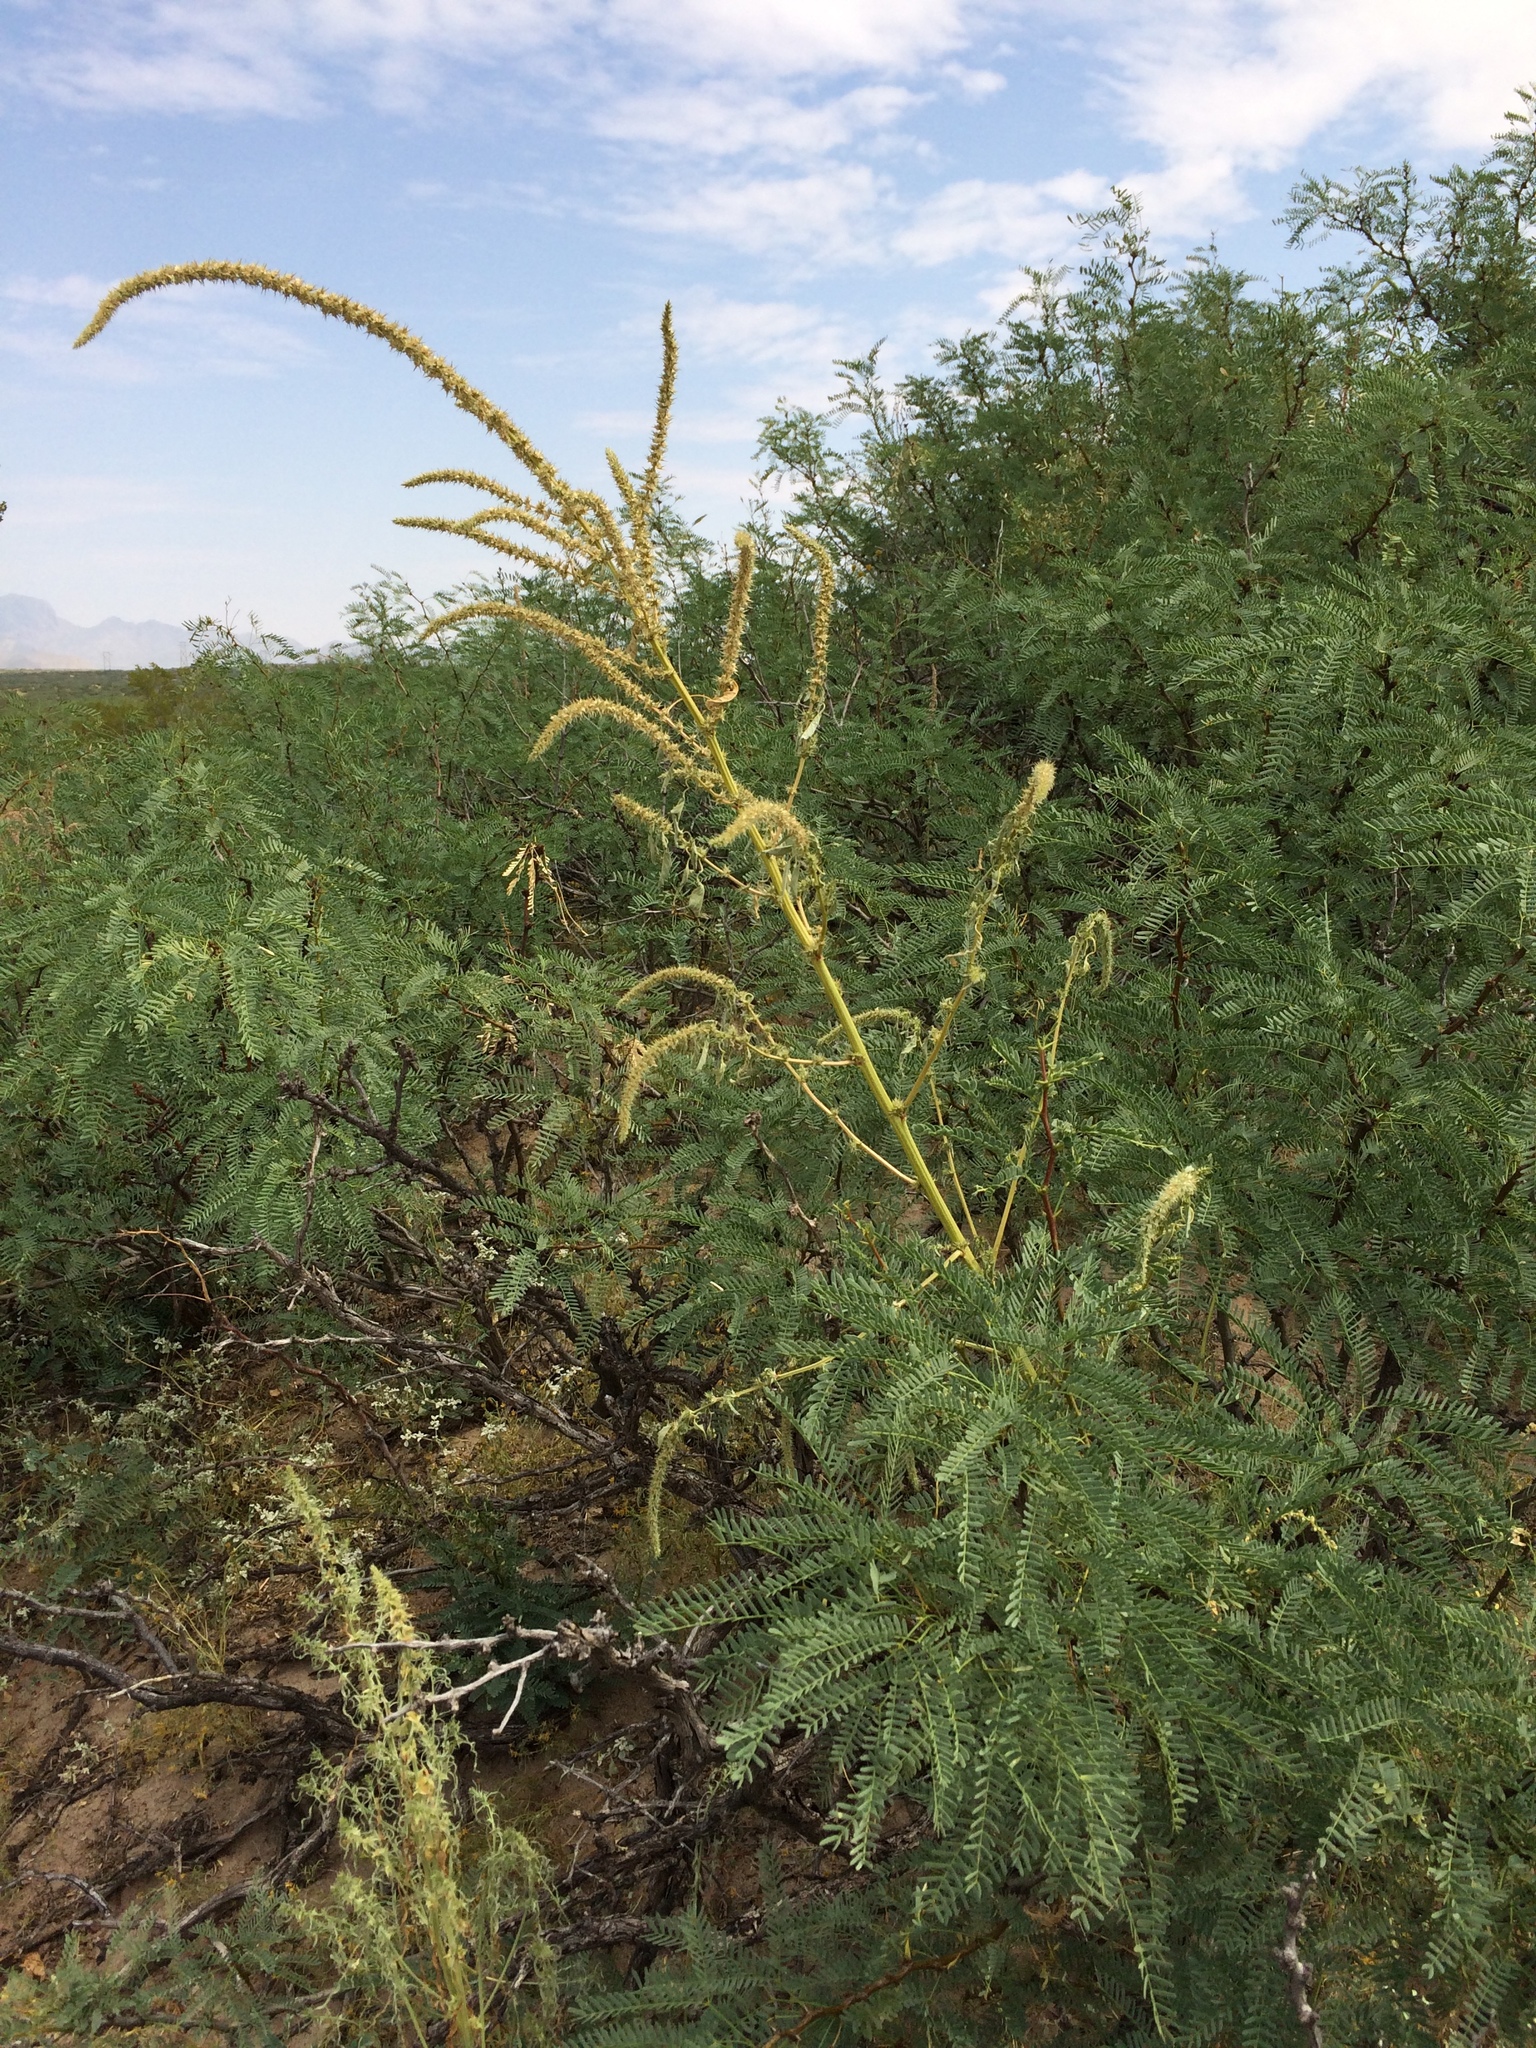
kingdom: Plantae
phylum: Tracheophyta
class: Magnoliopsida
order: Caryophyllales
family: Amaranthaceae
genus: Amaranthus
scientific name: Amaranthus palmeri
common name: Dioecious amaranth
